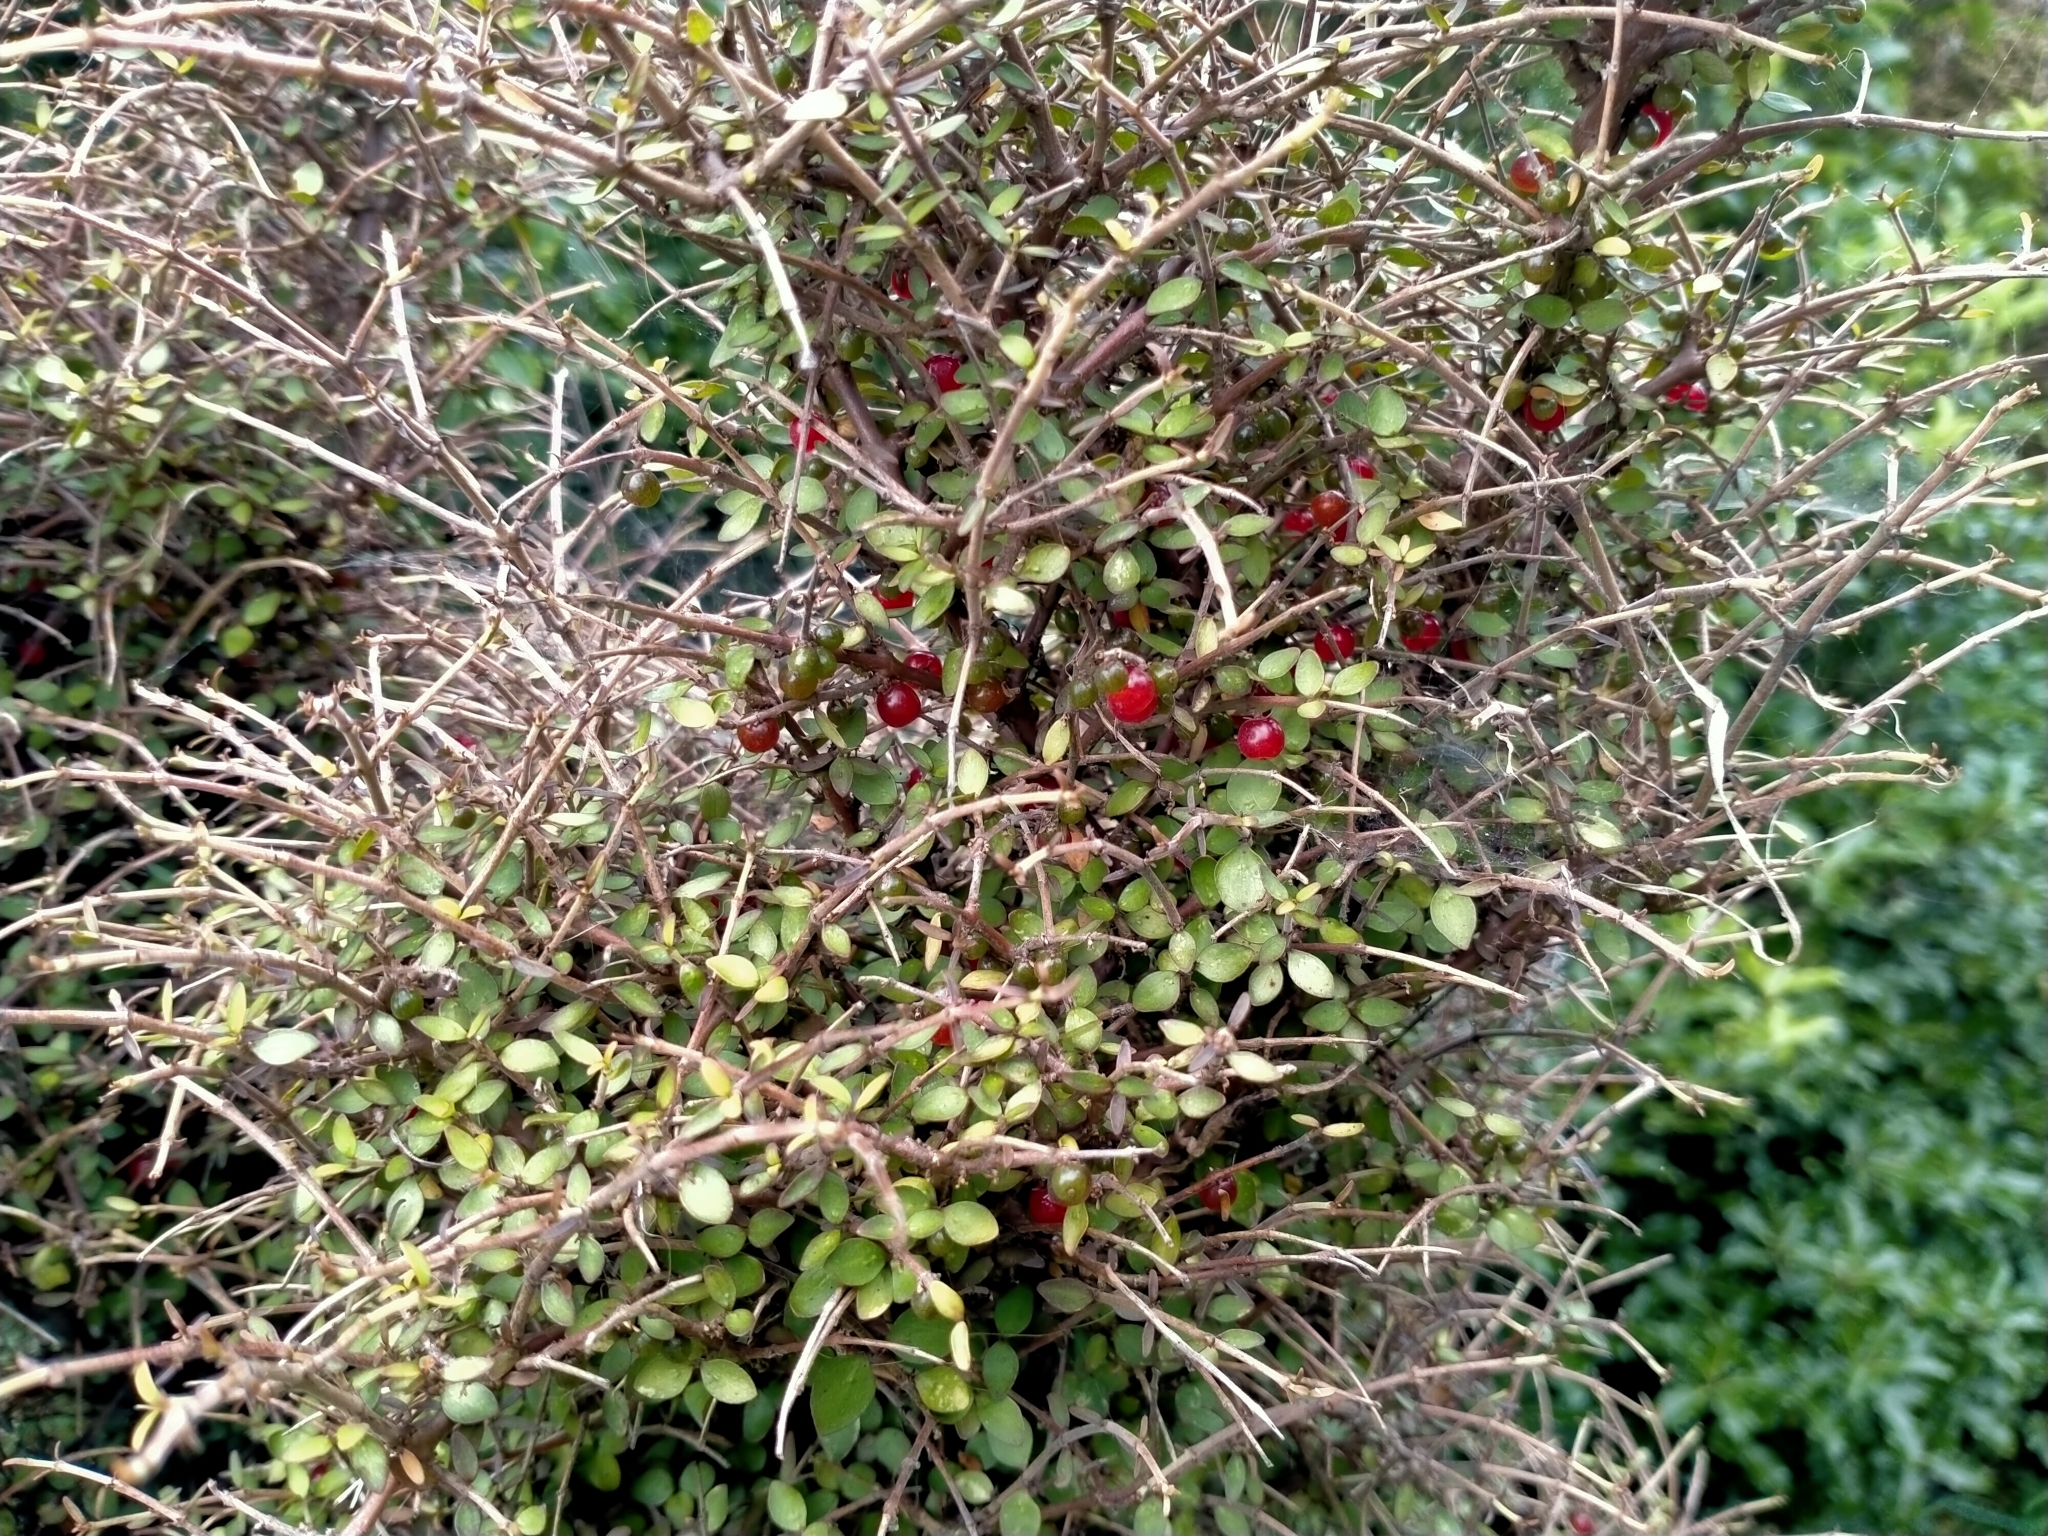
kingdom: Plantae
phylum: Tracheophyta
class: Magnoliopsida
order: Gentianales
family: Rubiaceae
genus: Coprosma
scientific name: Coprosma rhamnoides
